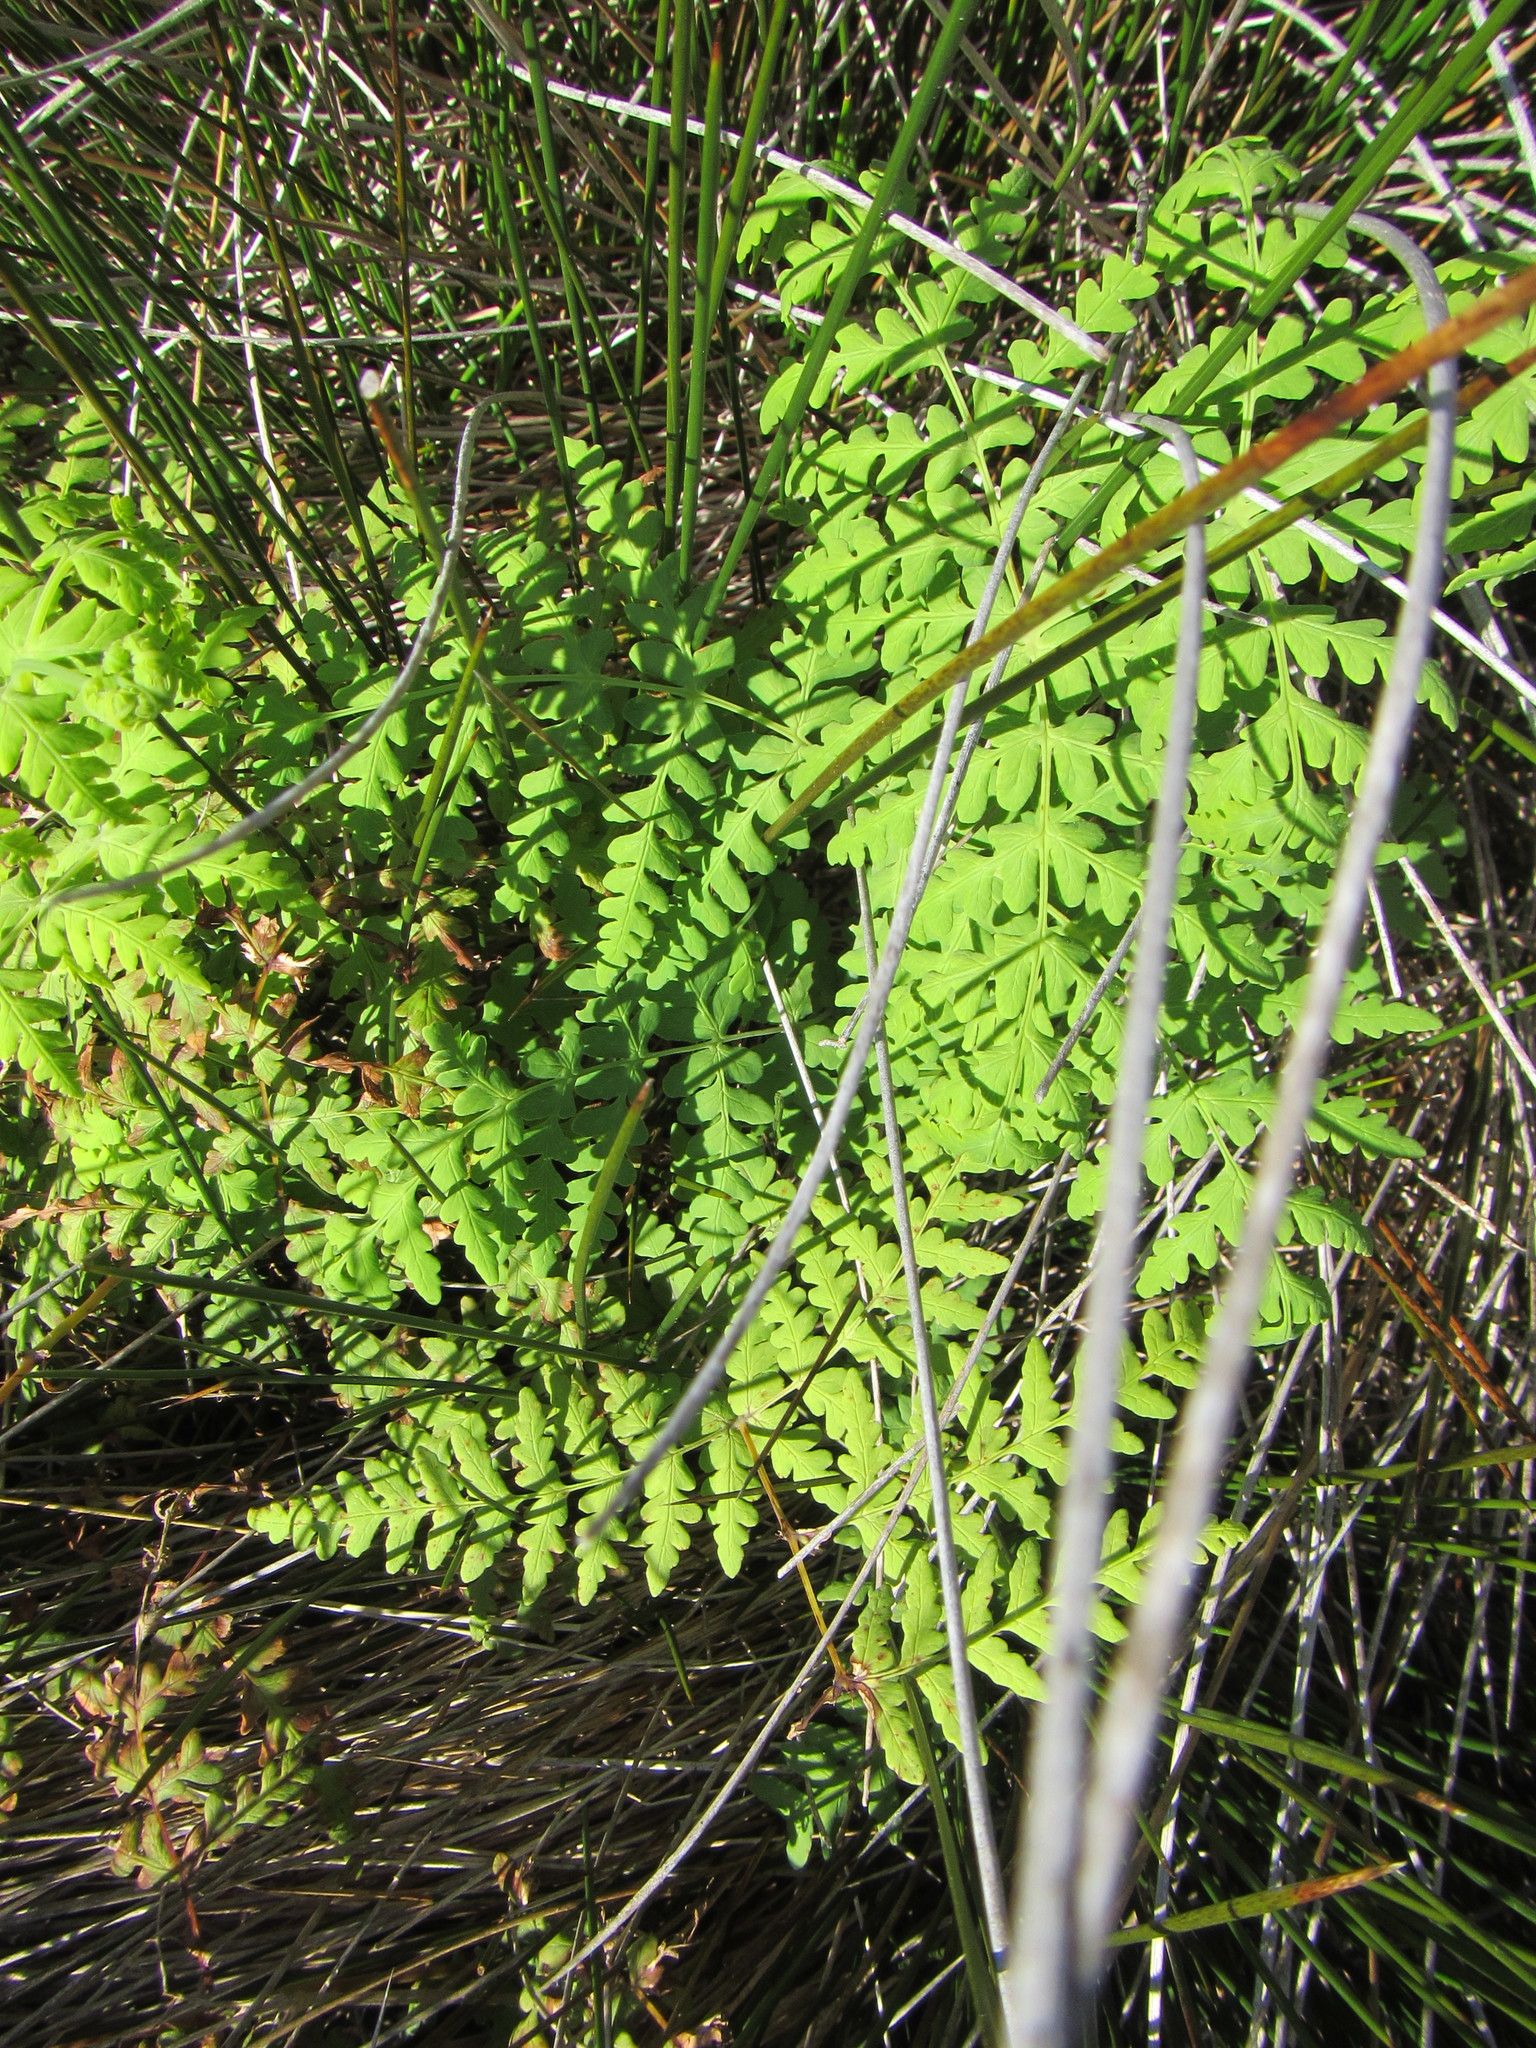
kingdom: Plantae
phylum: Tracheophyta
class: Polypodiopsida
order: Polypodiales
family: Dennstaedtiaceae
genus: Histiopteris
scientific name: Histiopteris incisa
